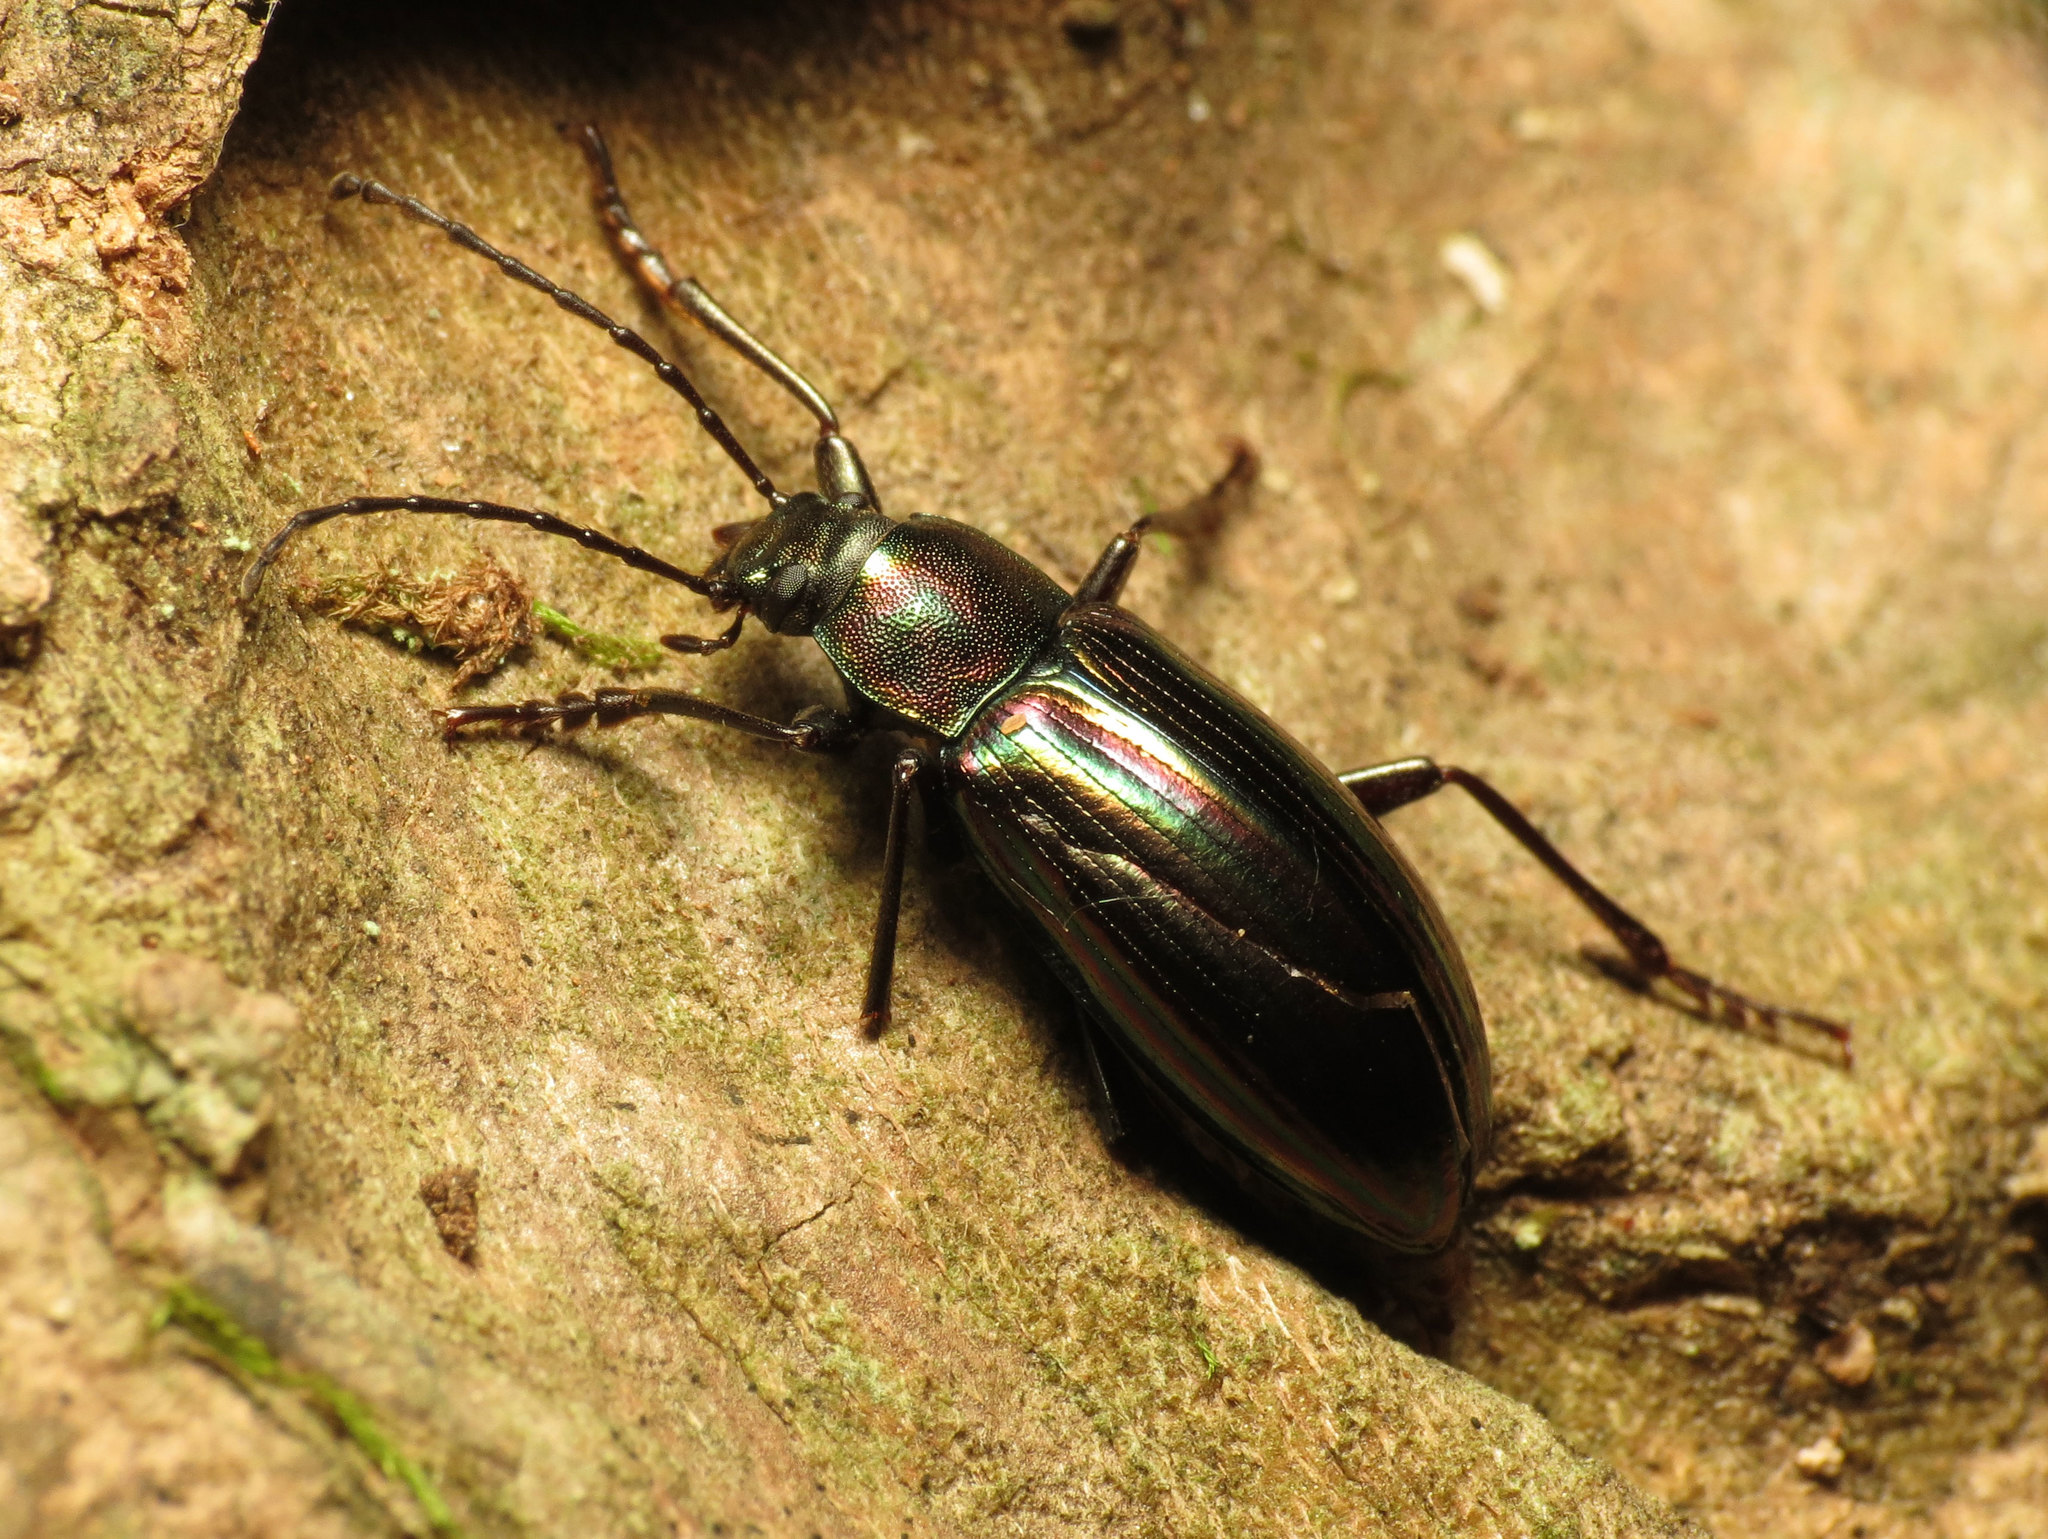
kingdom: Animalia
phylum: Arthropoda
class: Insecta
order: Coleoptera
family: Tenebrionidae
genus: Tarpela
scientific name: Tarpela micans
